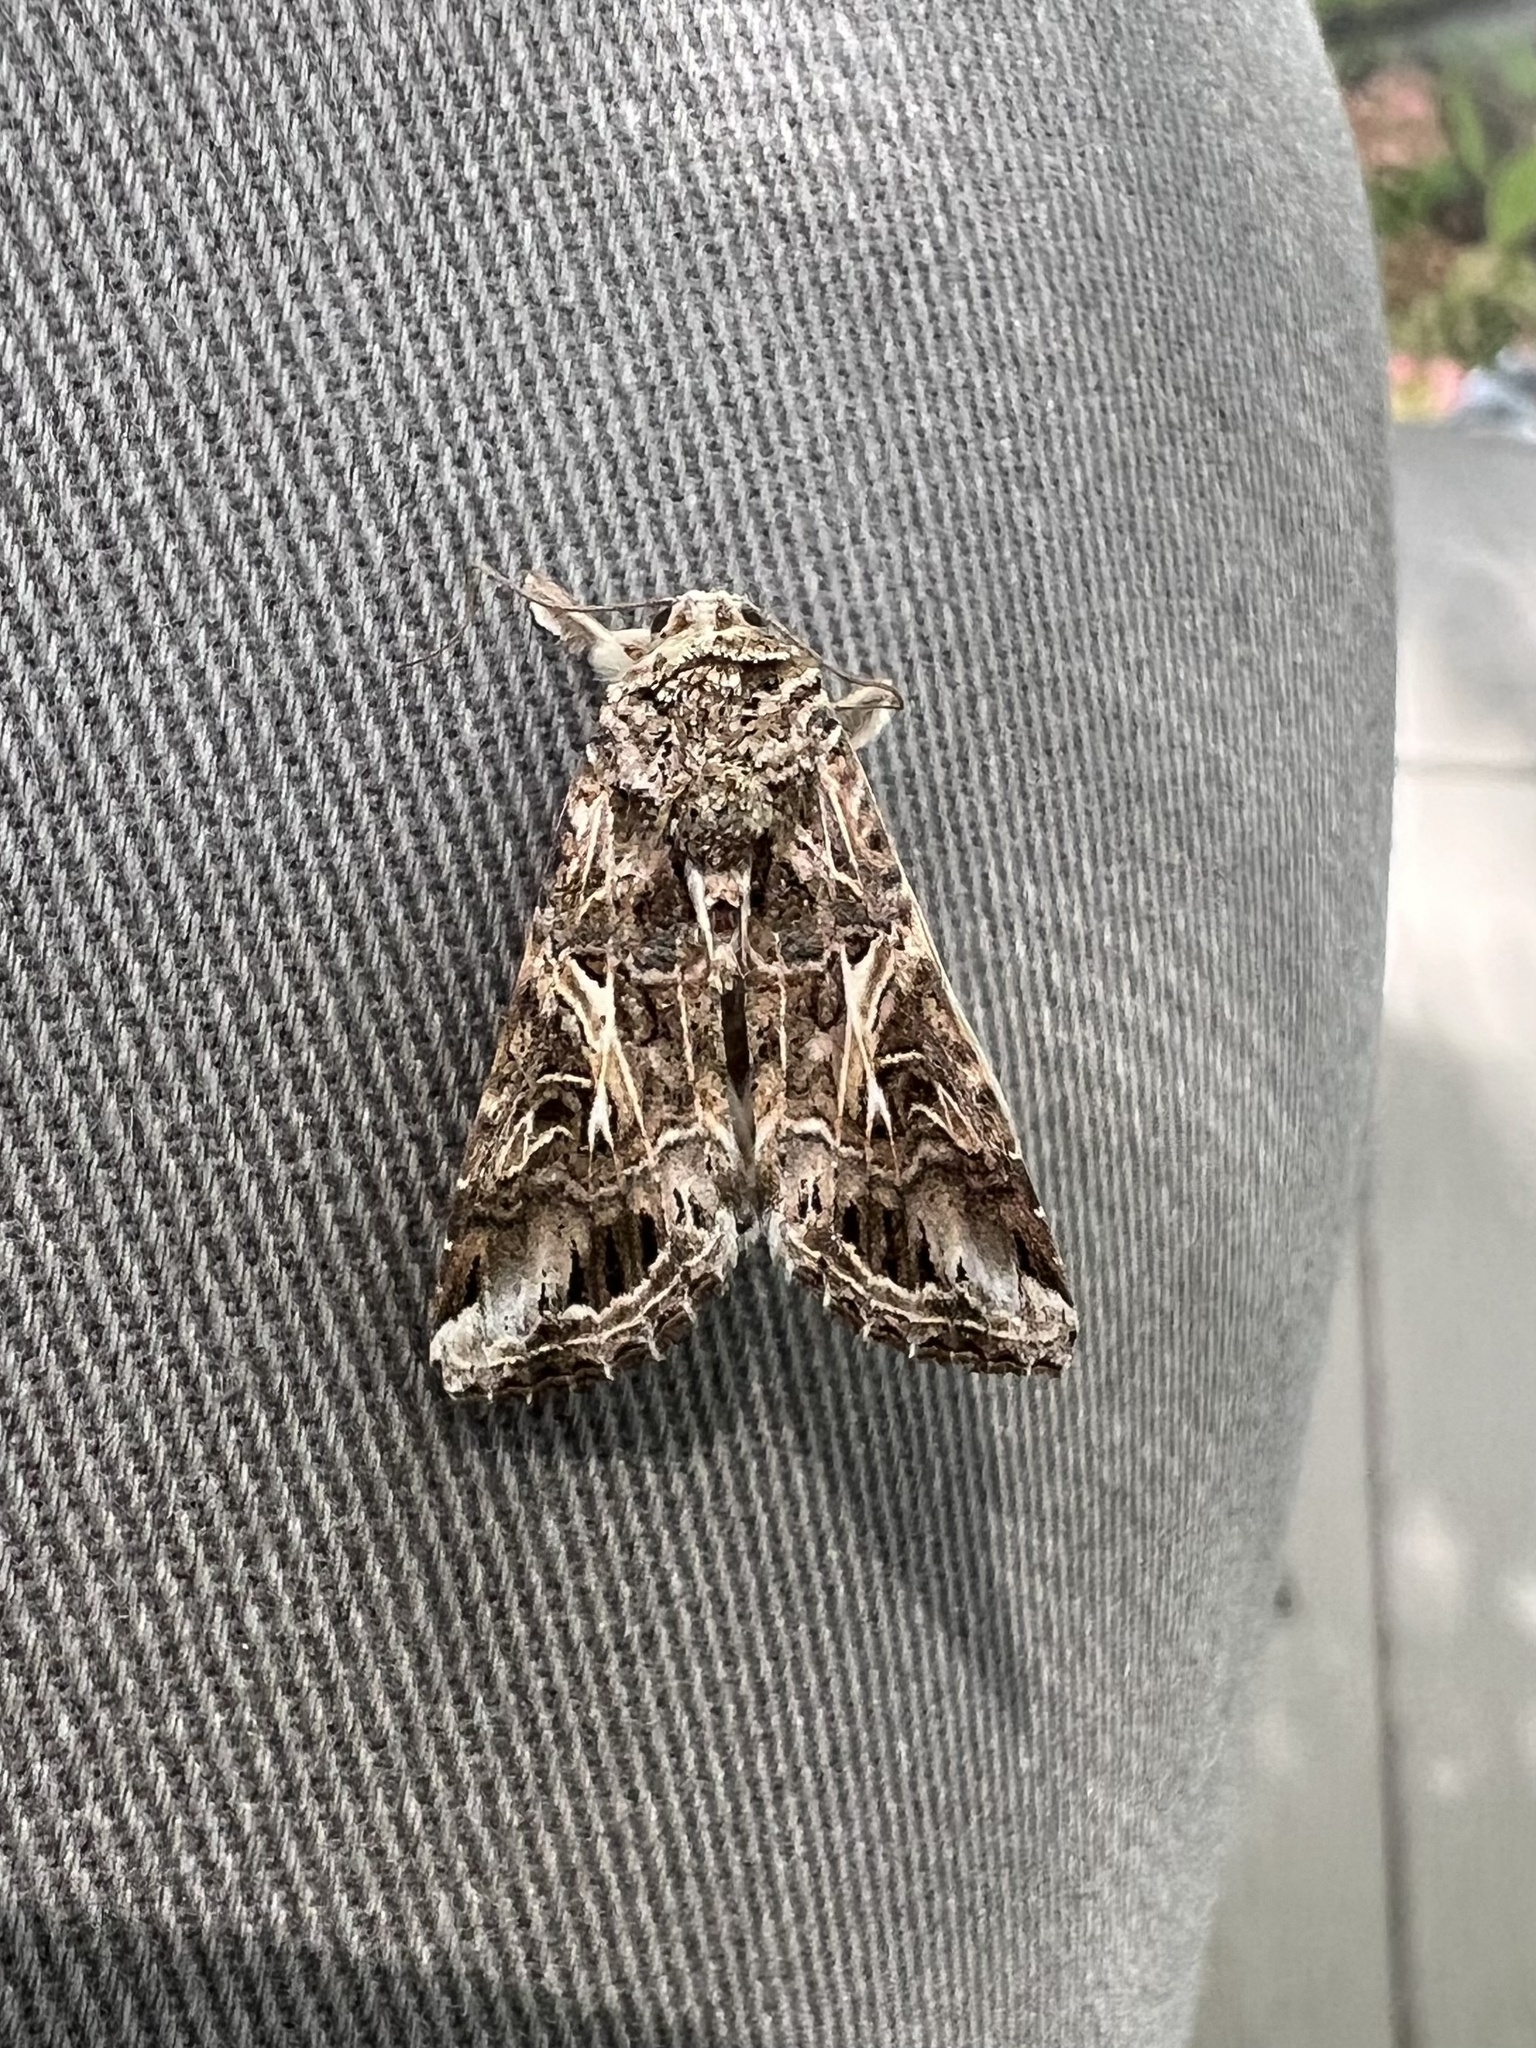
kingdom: Animalia
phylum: Arthropoda
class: Insecta
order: Lepidoptera
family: Noctuidae
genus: Spodoptera
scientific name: Spodoptera ornithogalli
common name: Yellow-striped armyworm
